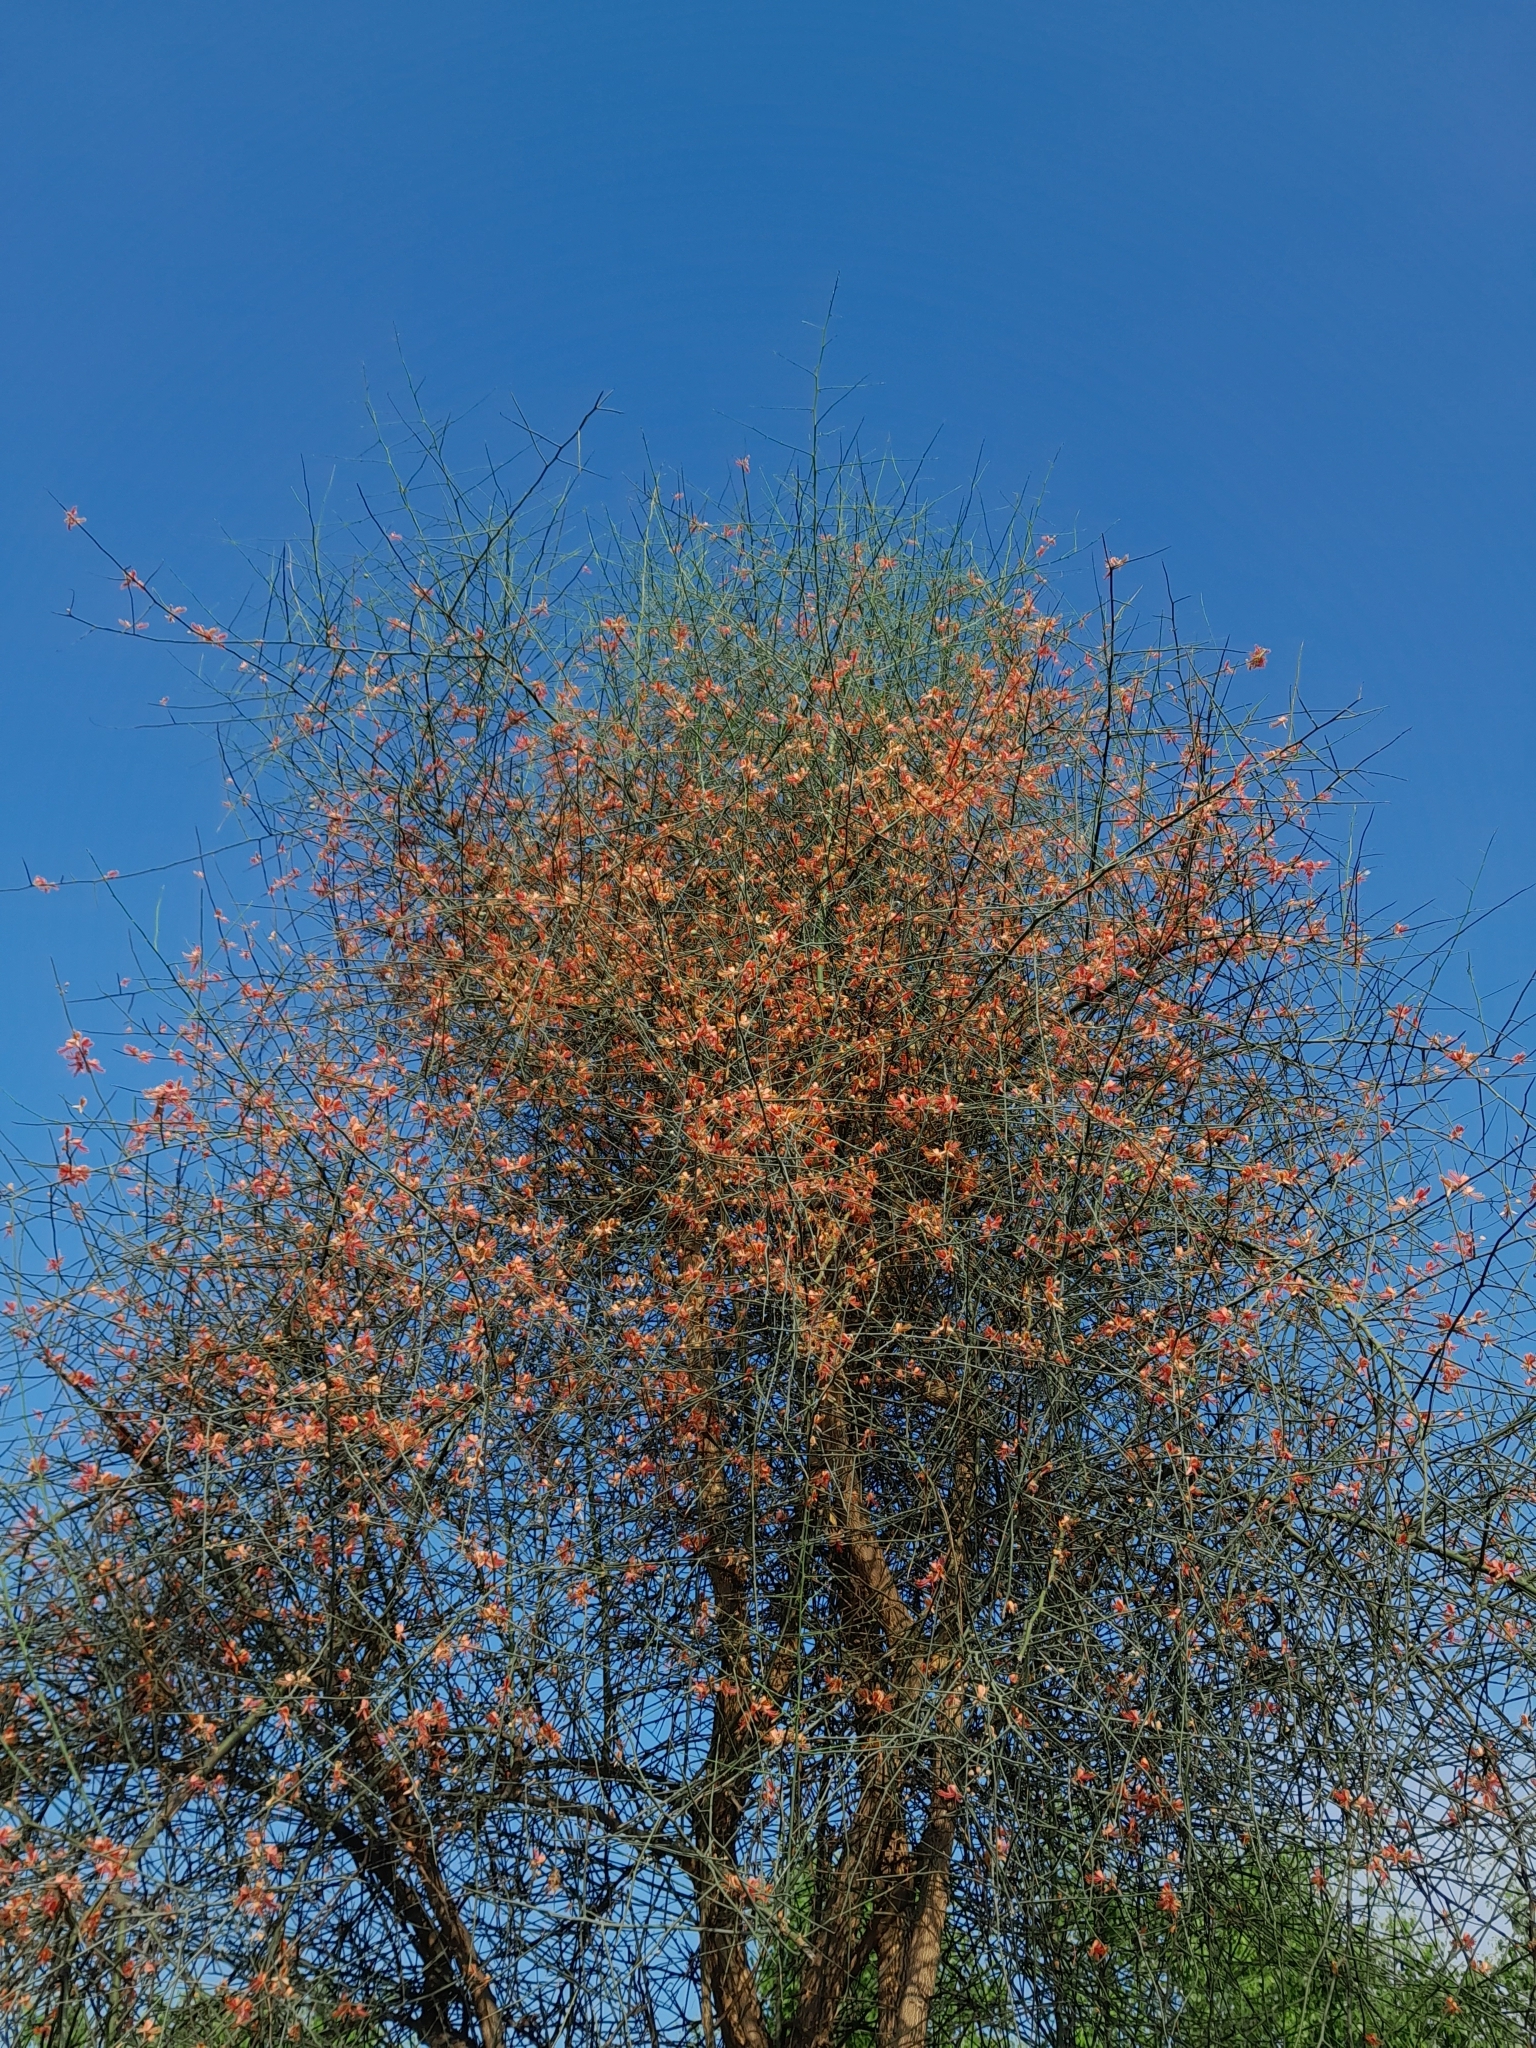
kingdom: Plantae
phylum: Tracheophyta
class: Magnoliopsida
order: Brassicales
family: Capparaceae
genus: Capparis
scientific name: Capparis decidua
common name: Sodada
